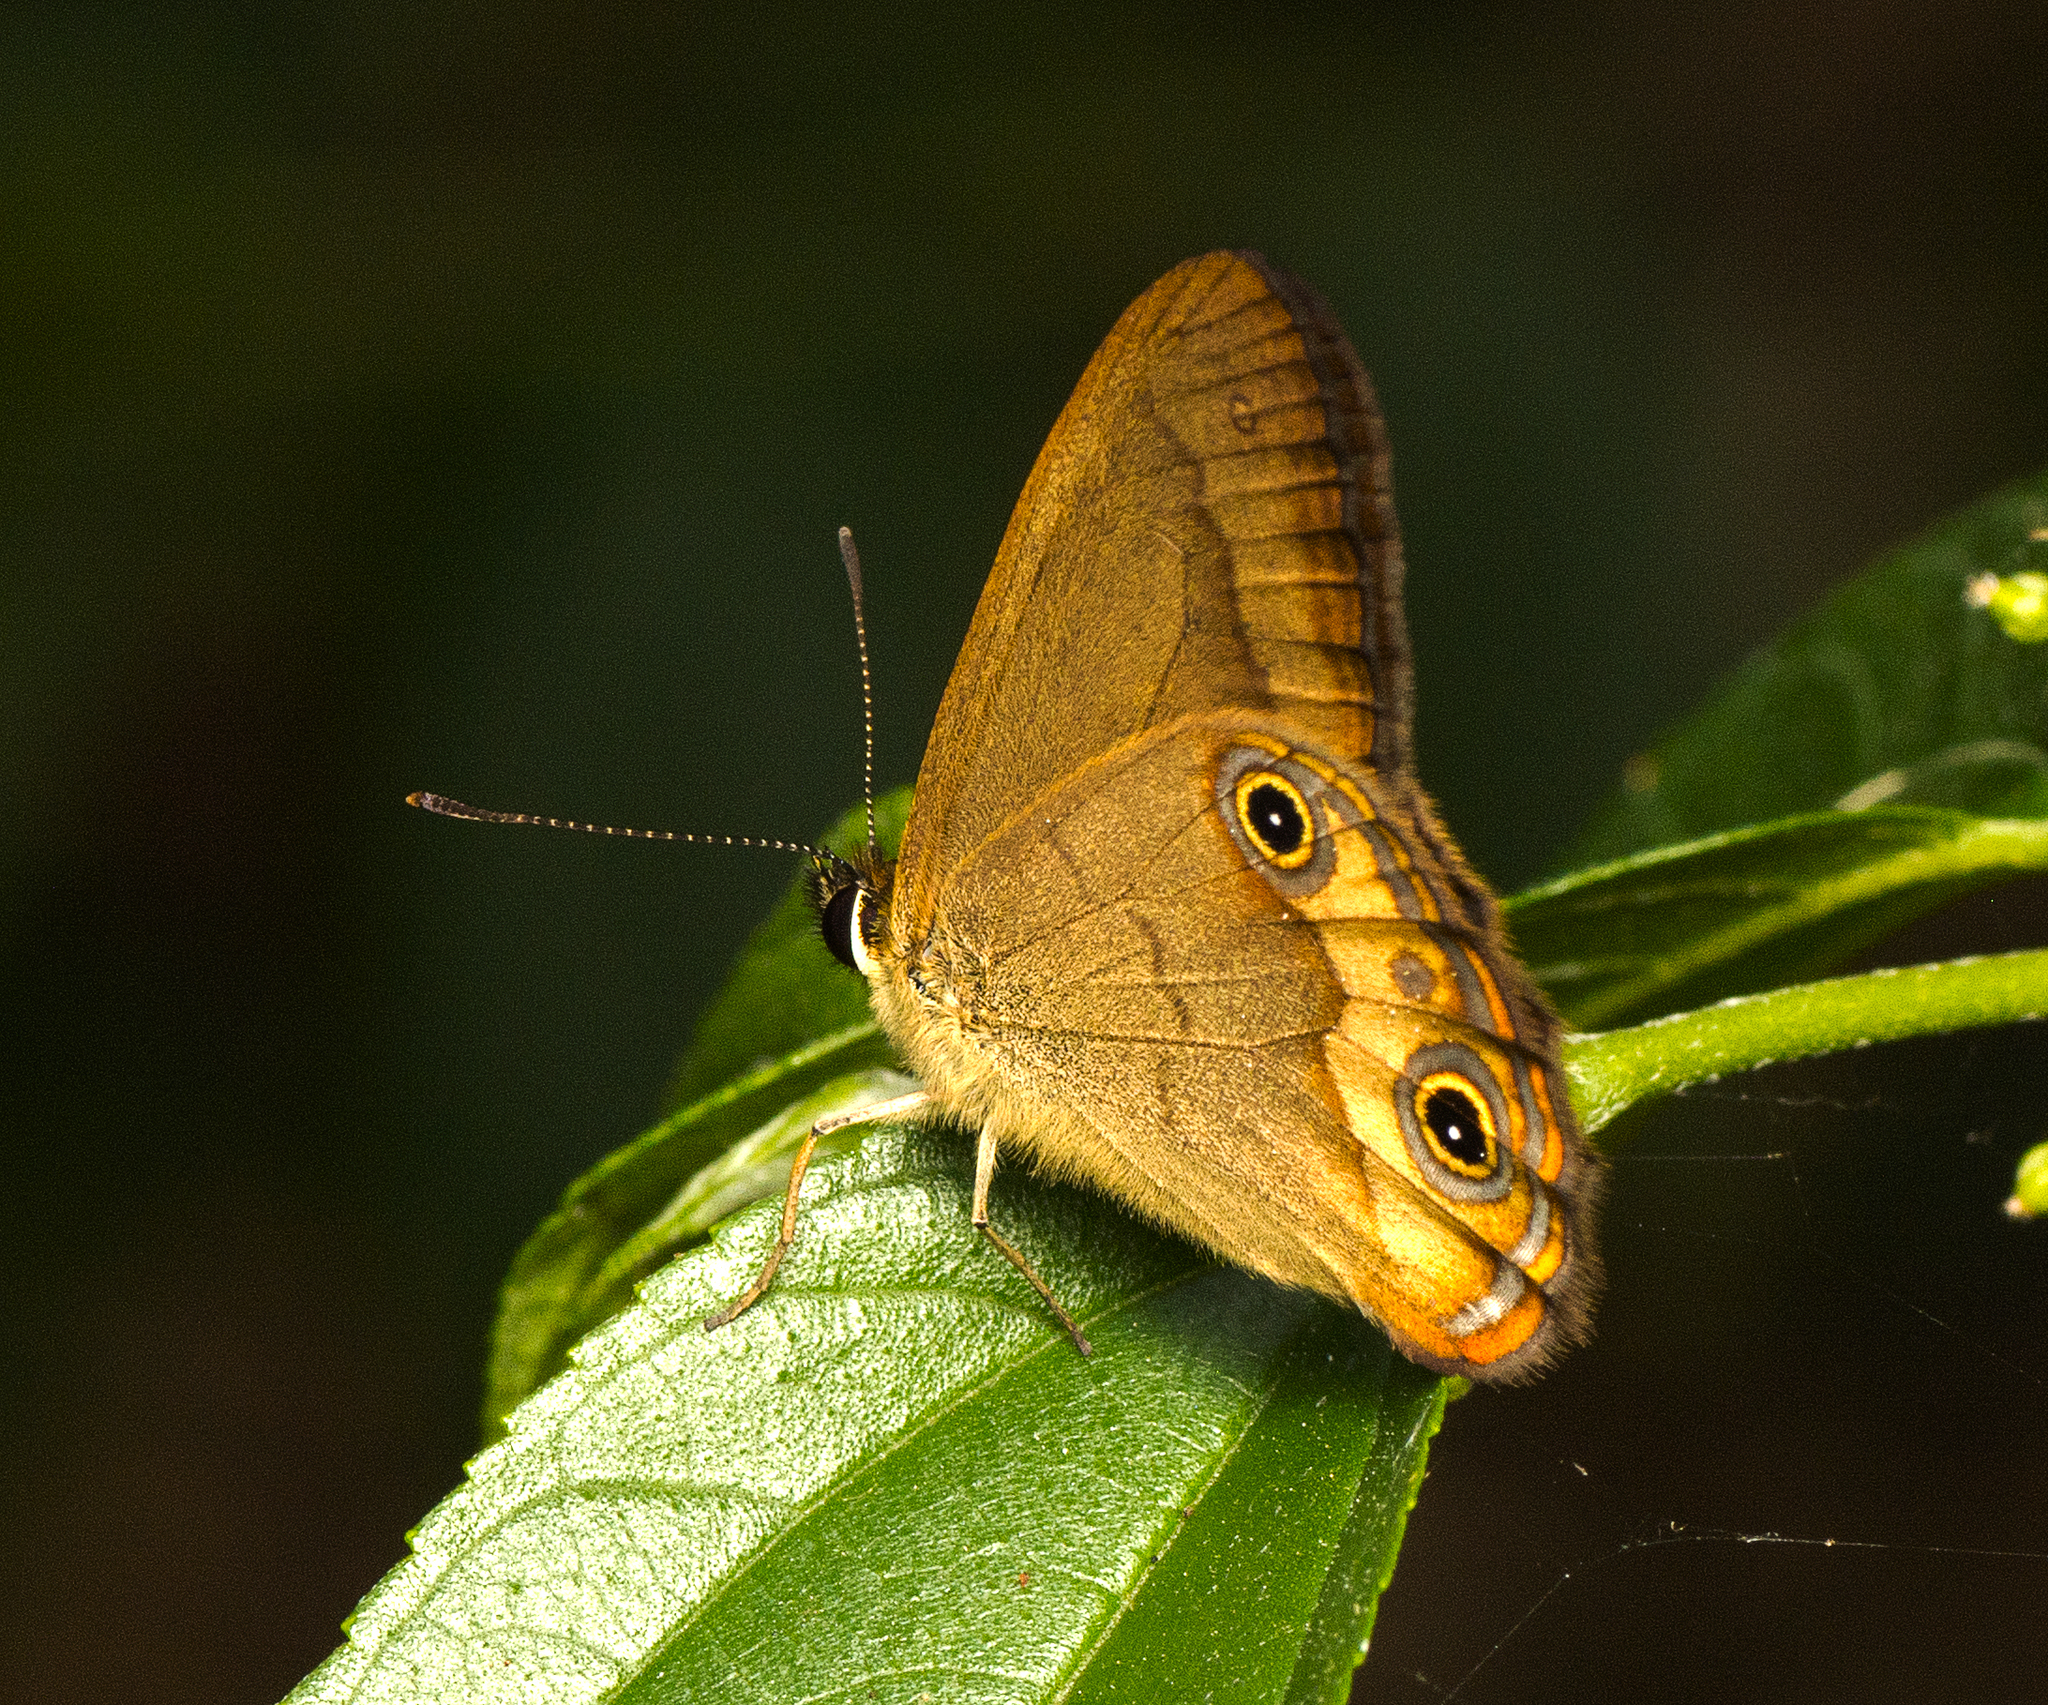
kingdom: Animalia
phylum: Arthropoda
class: Insecta
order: Lepidoptera
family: Nymphalidae
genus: Hypocysta
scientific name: Hypocysta metirius
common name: Brown ringlet
